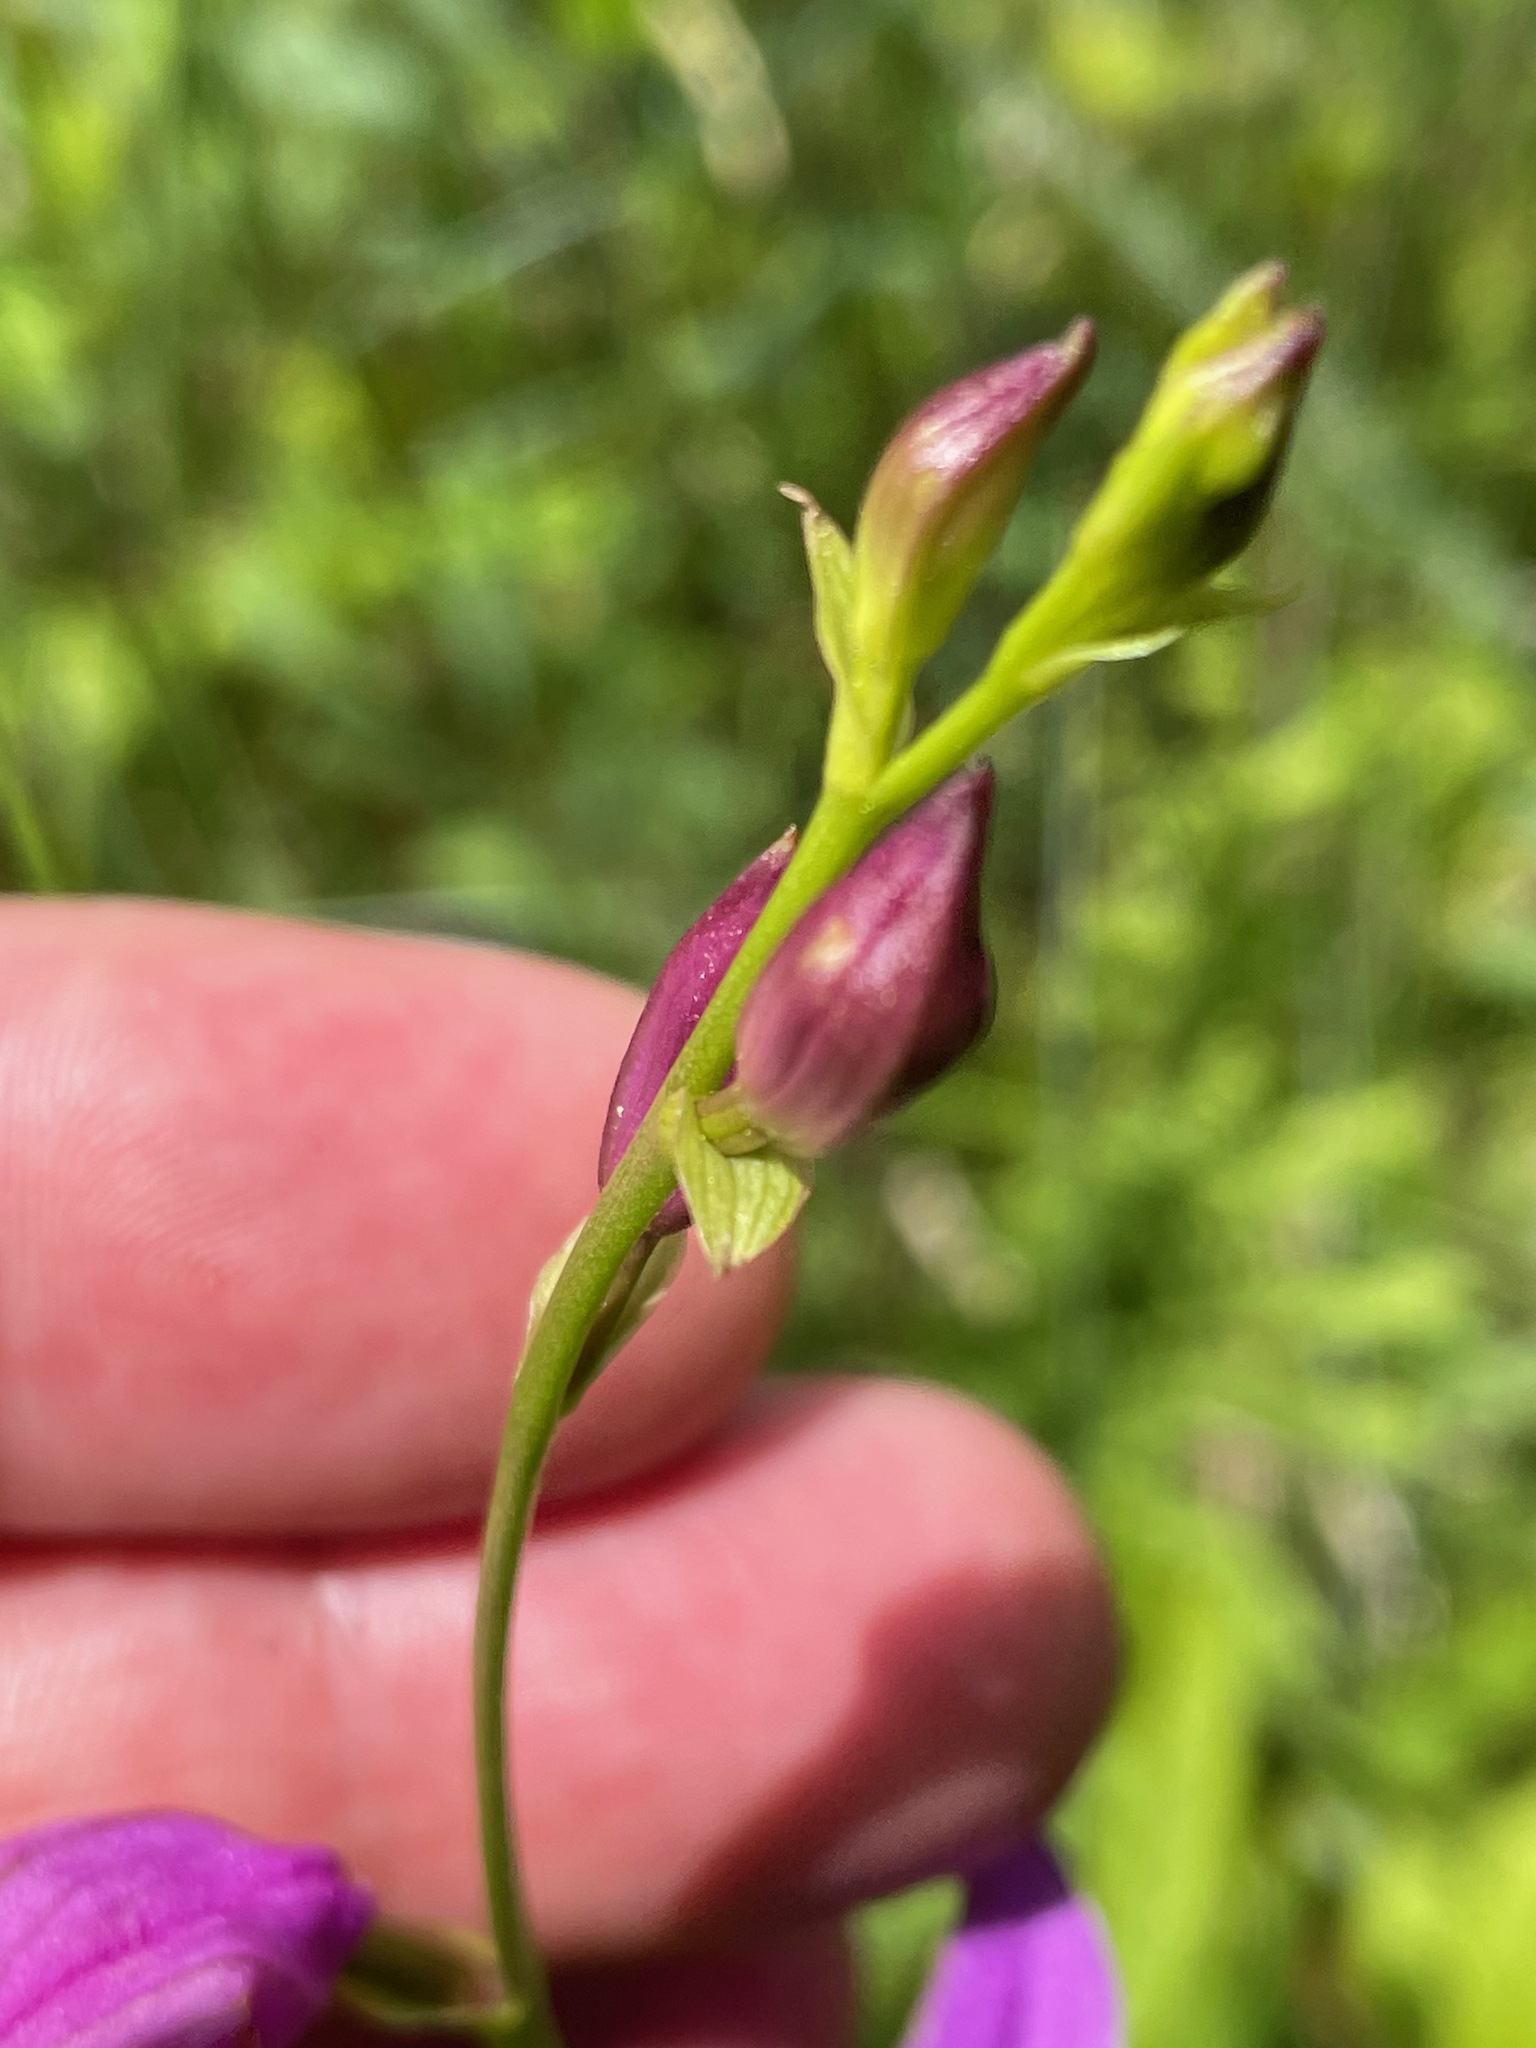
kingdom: Plantae
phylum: Tracheophyta
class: Liliopsida
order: Asparagales
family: Orchidaceae
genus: Calopogon
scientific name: Calopogon tuberosus
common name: Grass-pink
